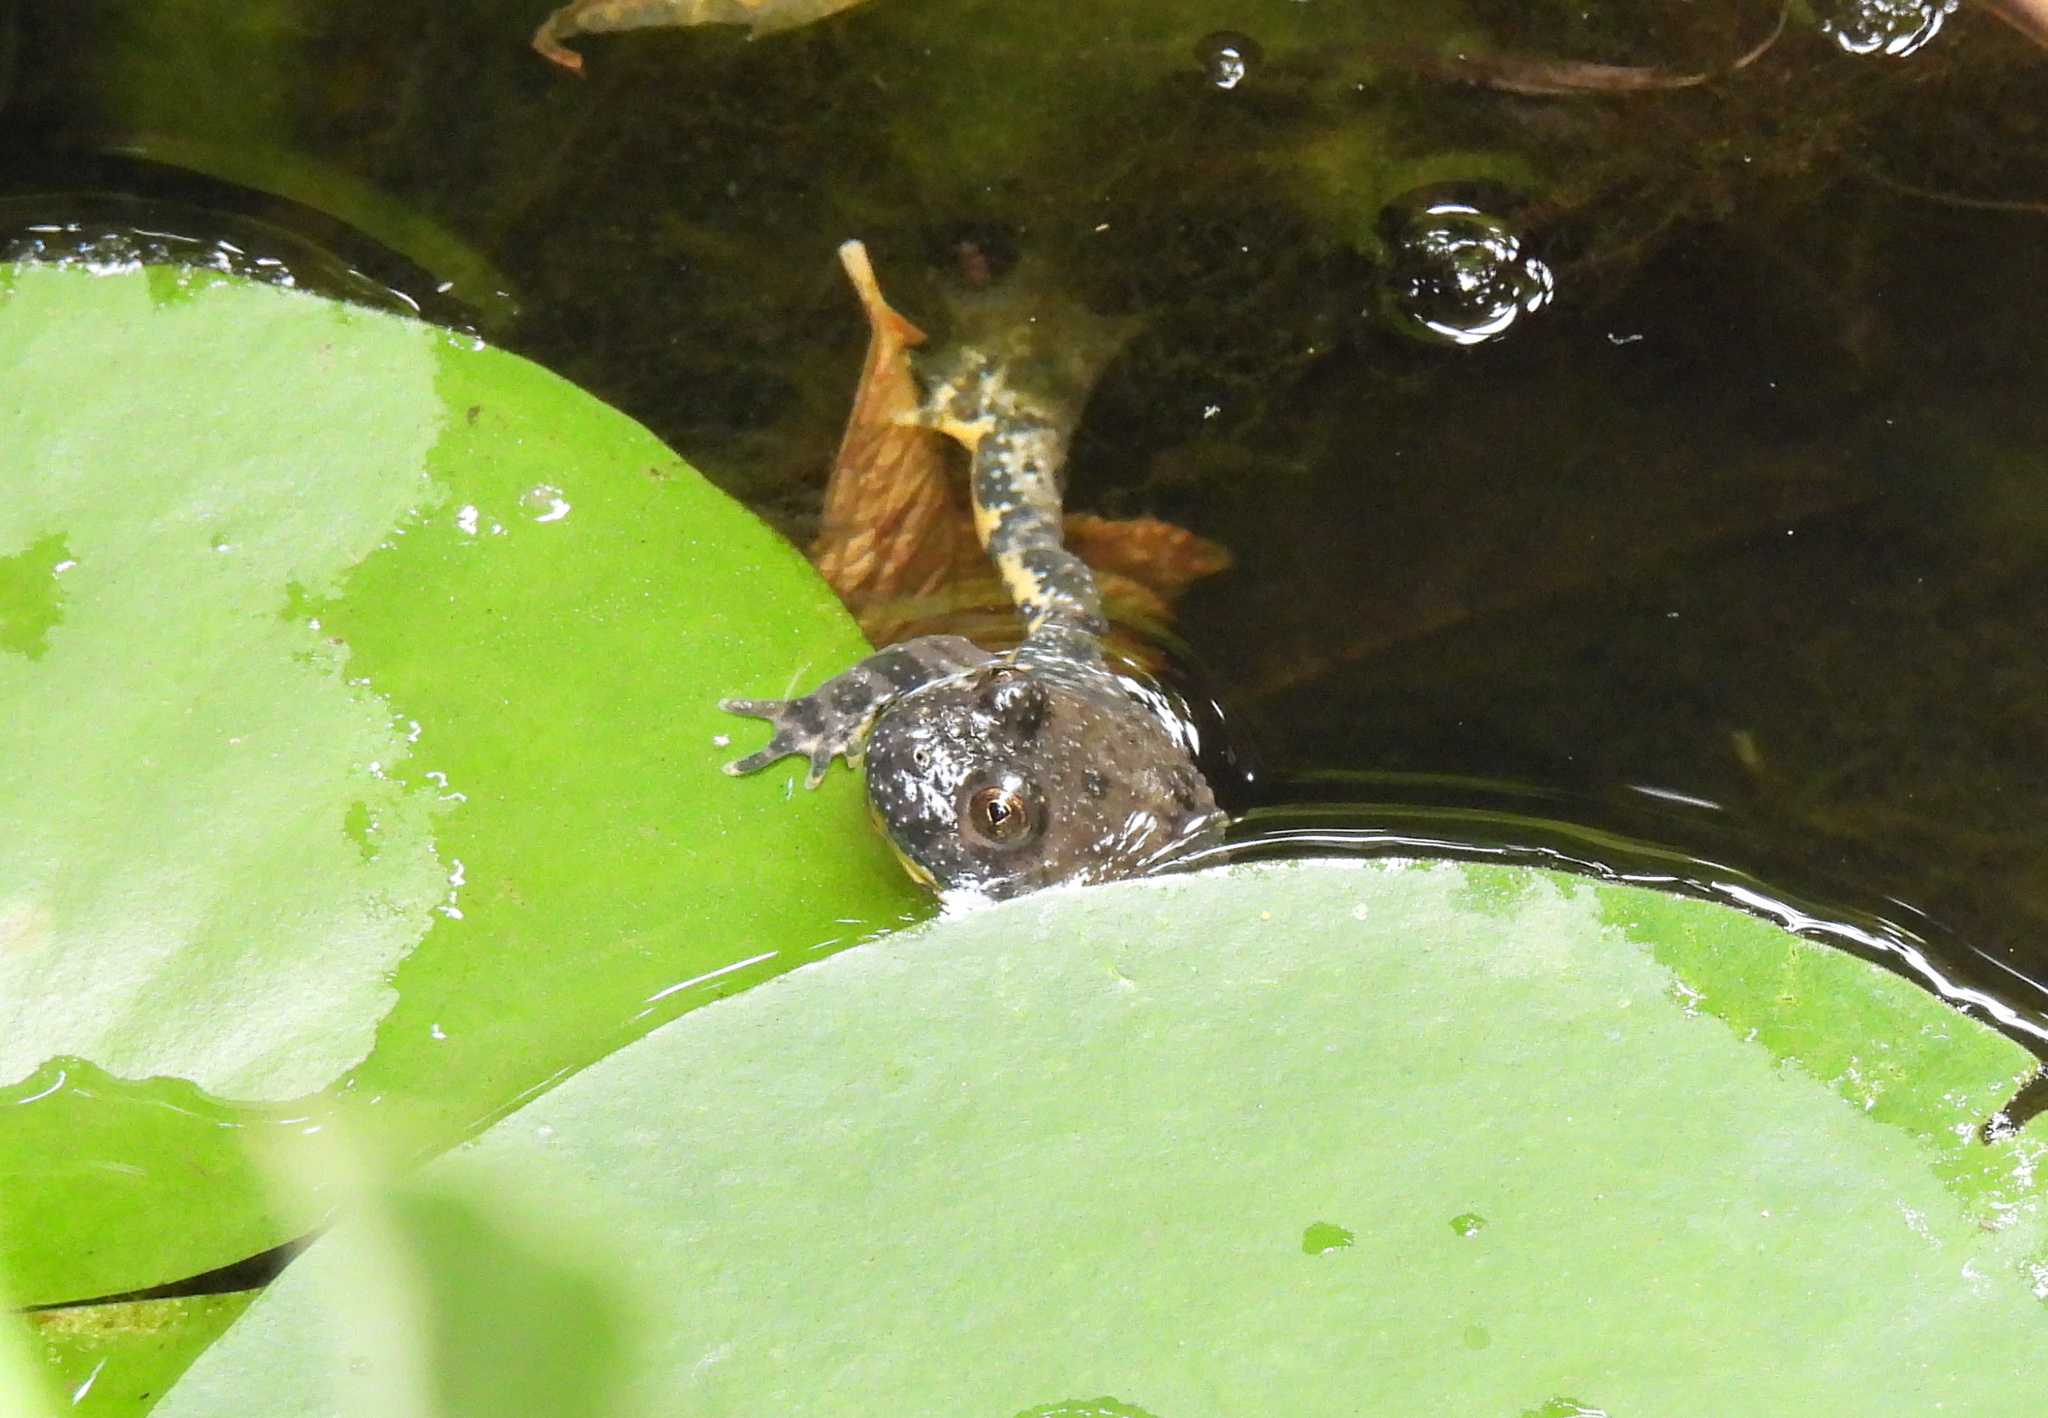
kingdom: Animalia
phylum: Chordata
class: Amphibia
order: Anura
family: Bombinatoridae
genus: Bombina
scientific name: Bombina variegata
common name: Yellow-bellied toad
